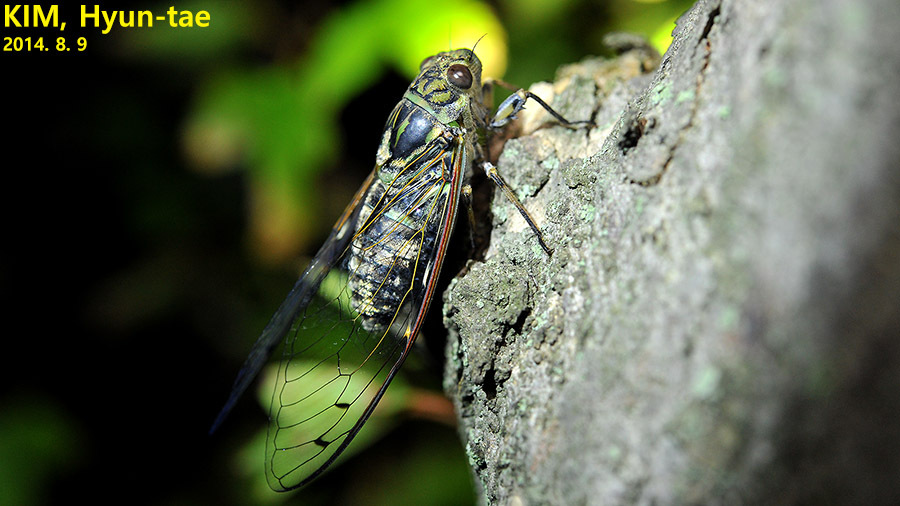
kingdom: Animalia
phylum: Arthropoda
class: Insecta
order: Hemiptera
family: Cicadidae
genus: Meimuna
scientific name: Meimuna opalifera
